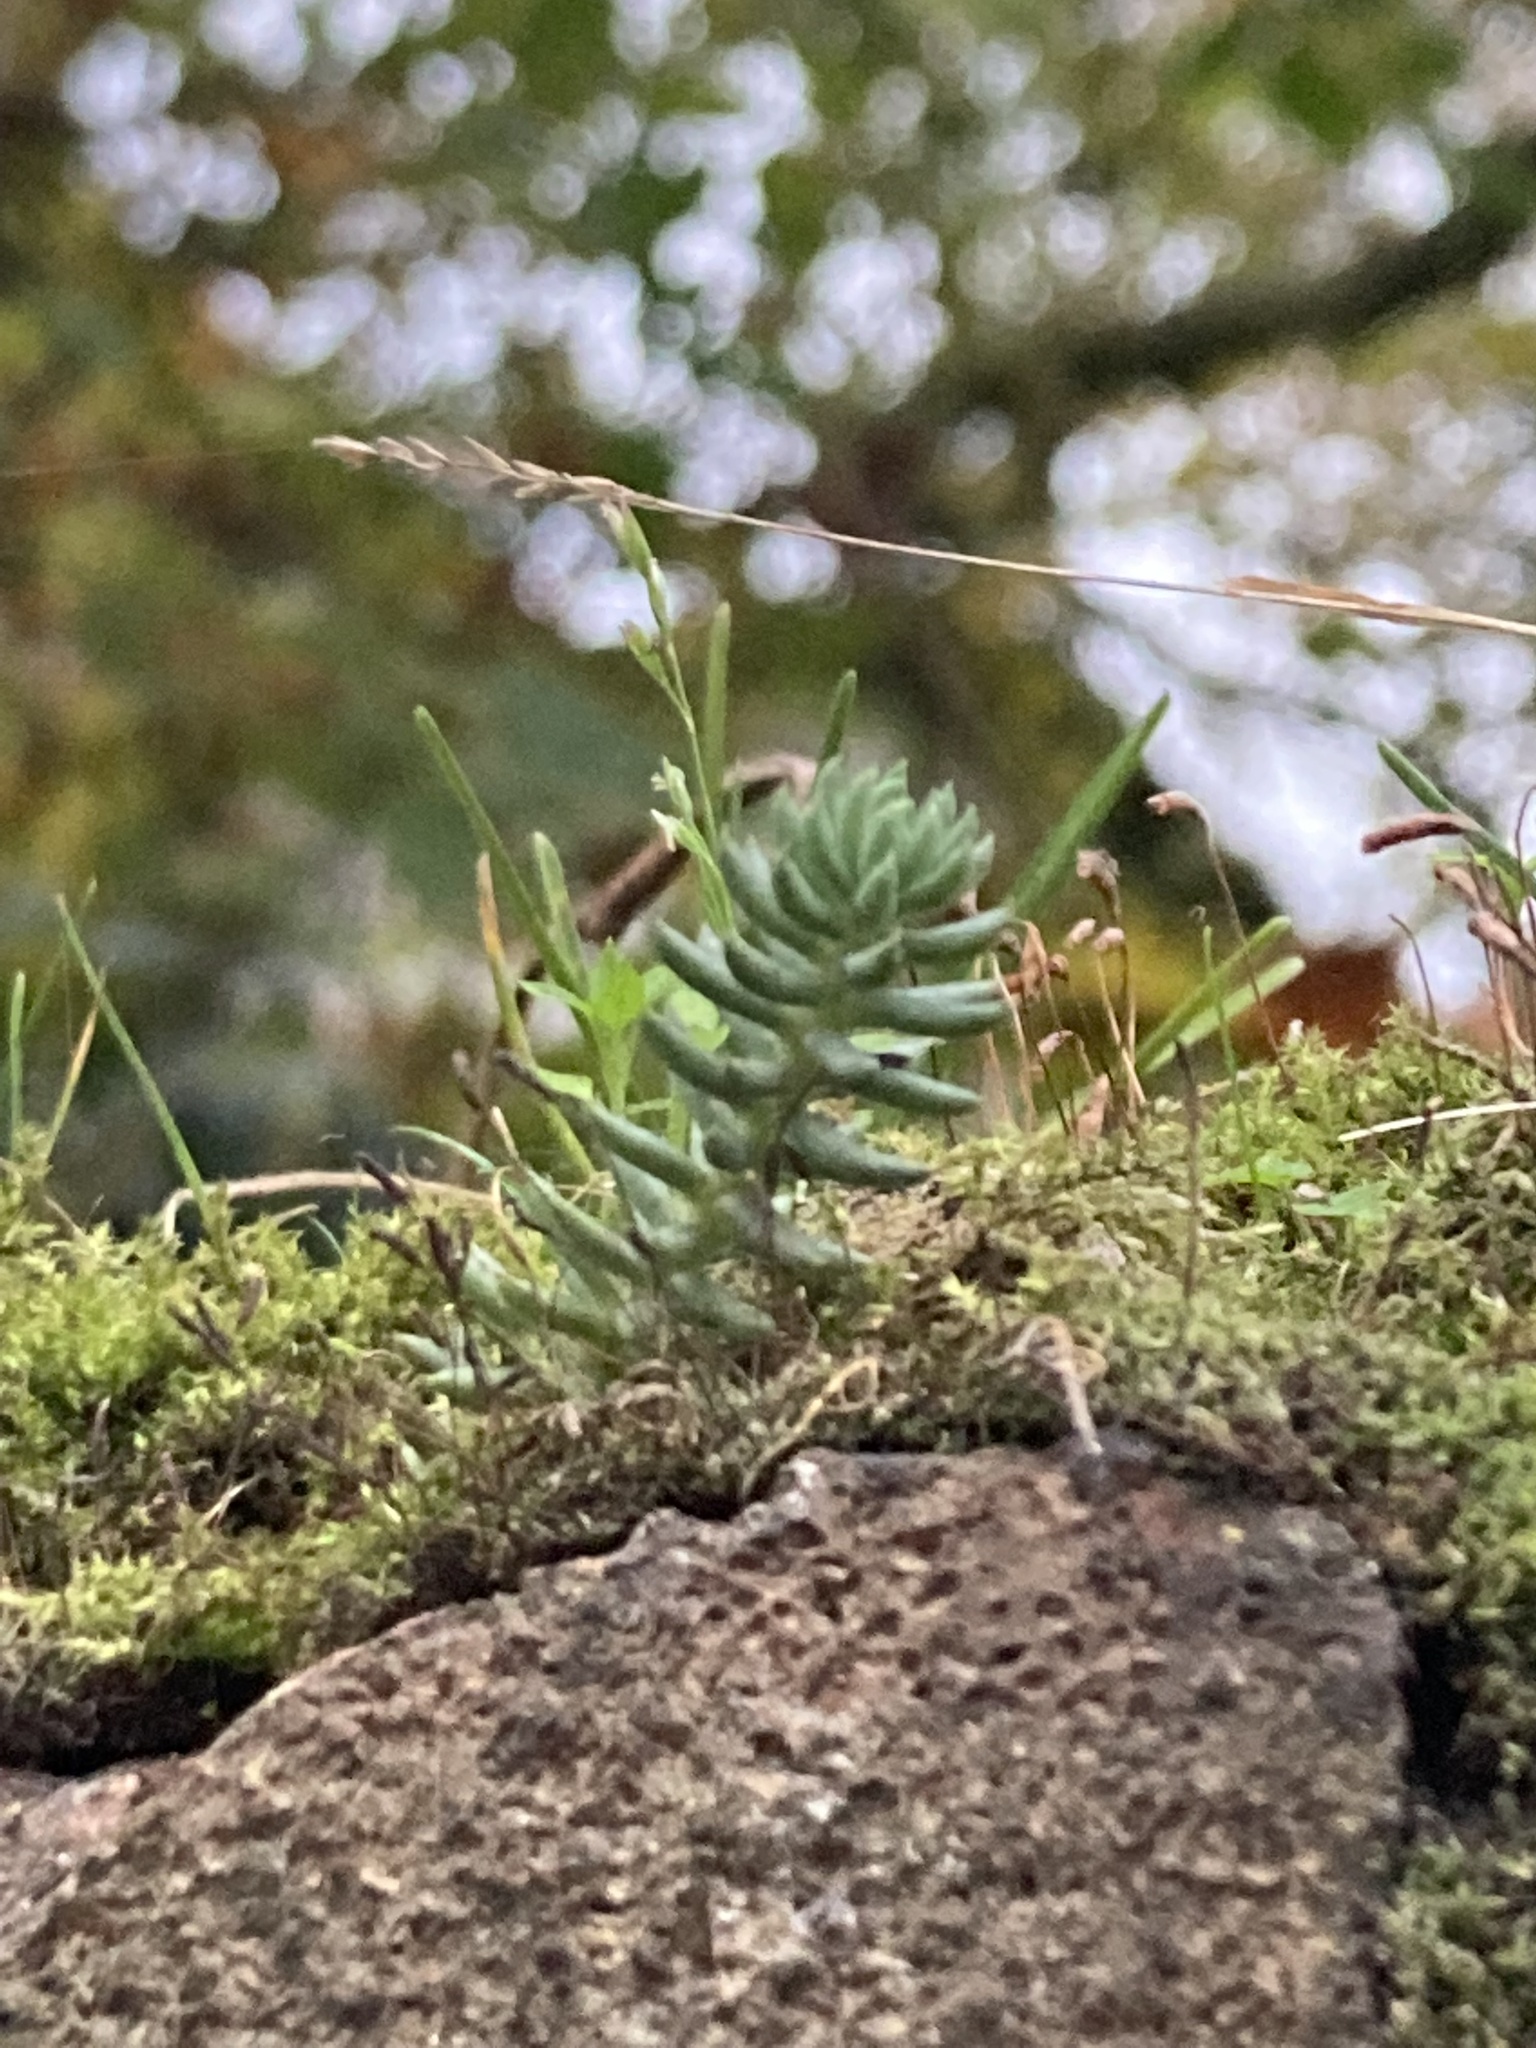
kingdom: Plantae
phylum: Tracheophyta
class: Magnoliopsida
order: Saxifragales
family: Crassulaceae
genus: Petrosedum
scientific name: Petrosedum rupestre
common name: Jenny's stonecrop
